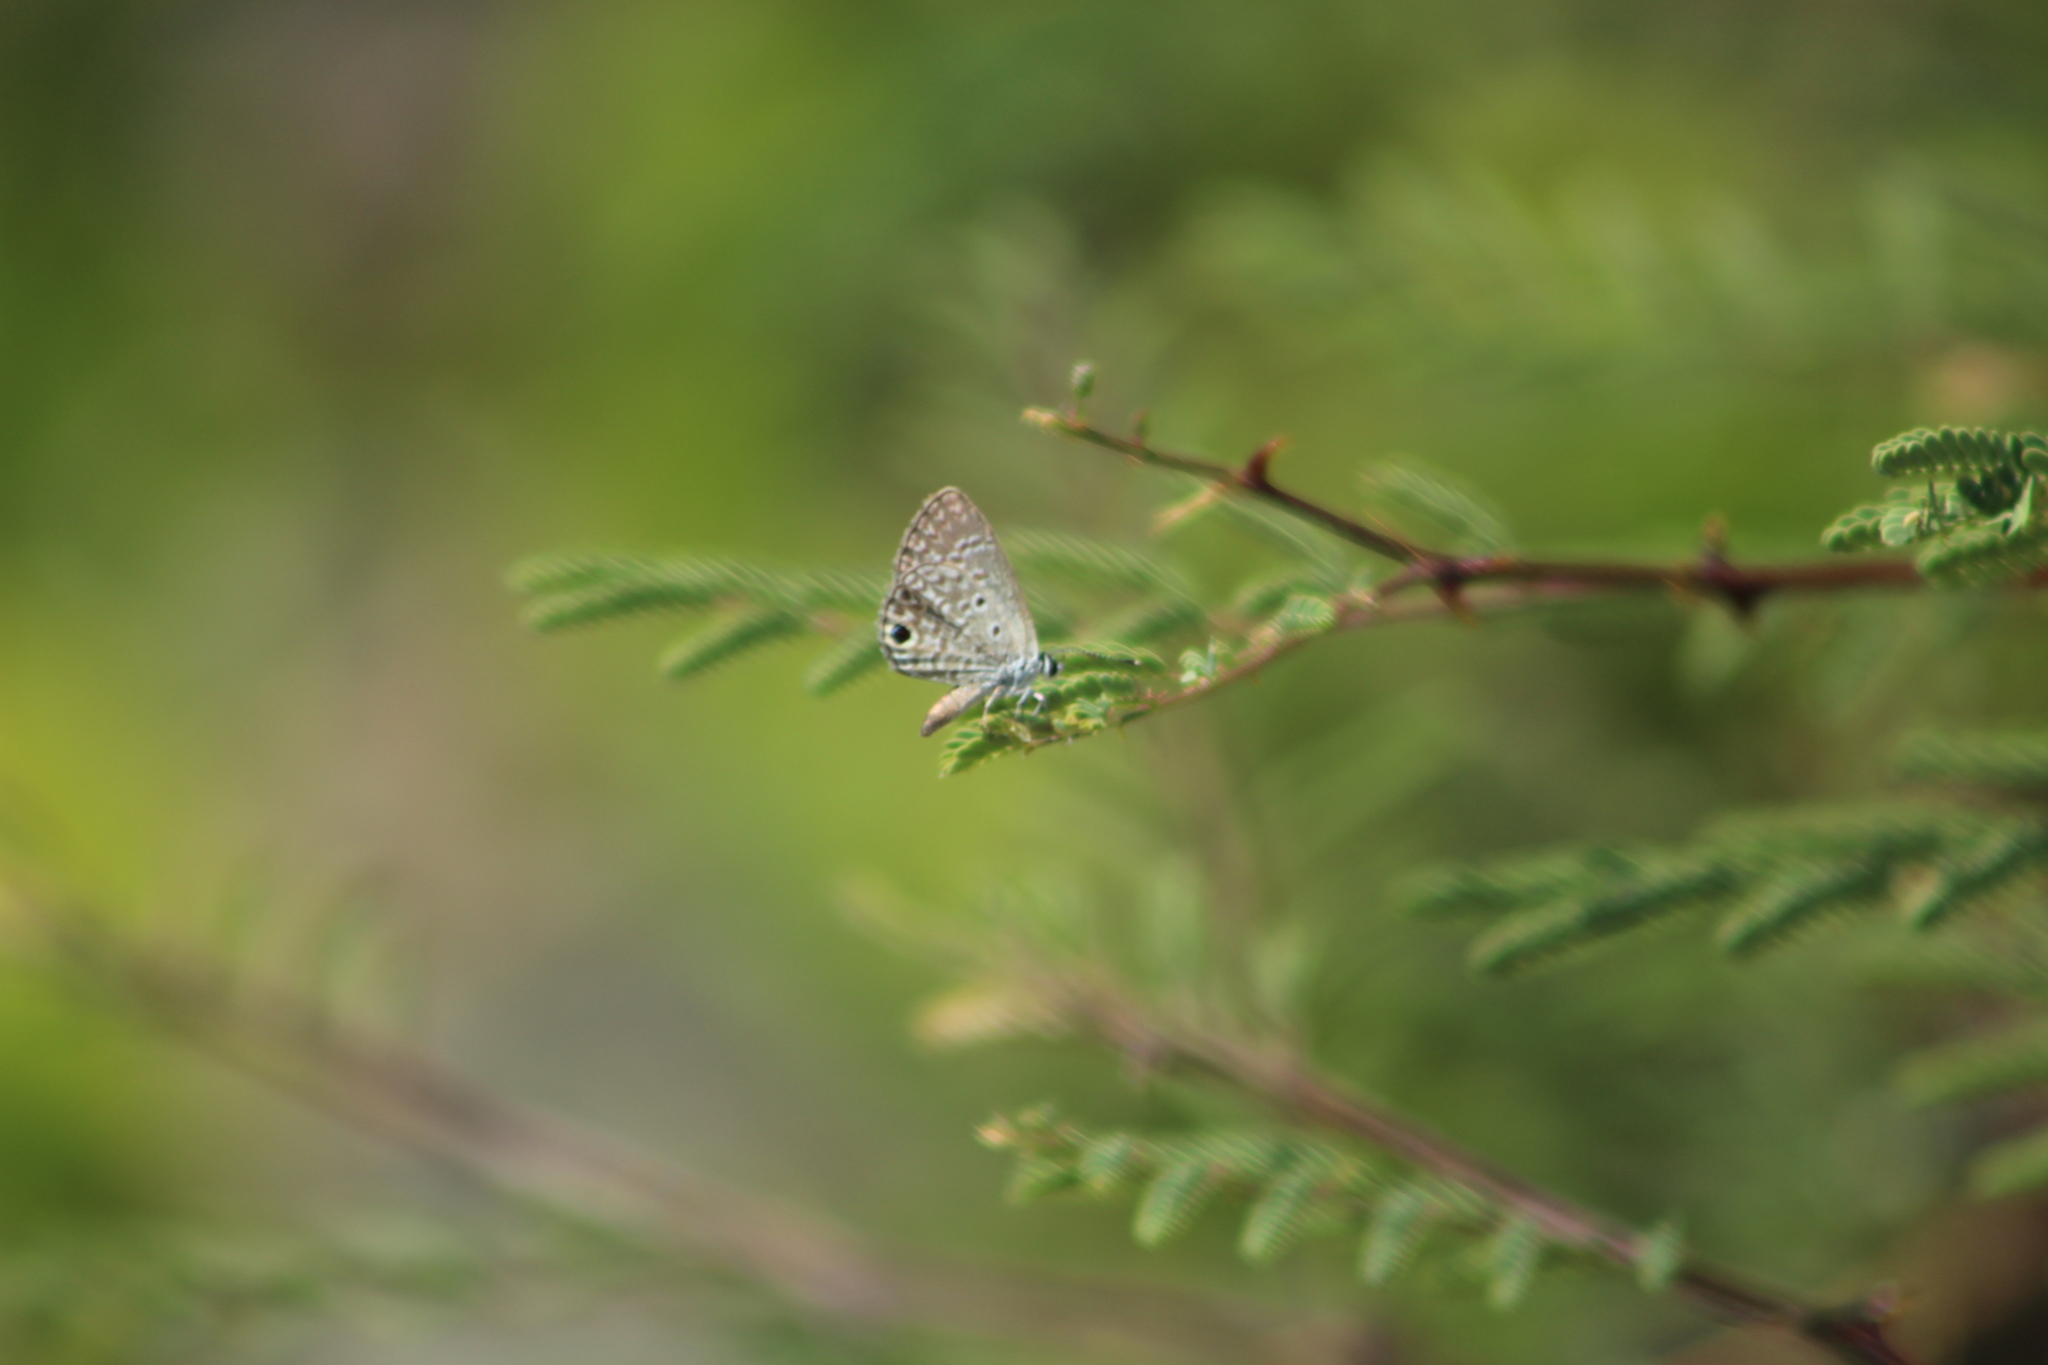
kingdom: Animalia
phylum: Arthropoda
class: Insecta
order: Lepidoptera
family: Lycaenidae
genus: Hemiargus
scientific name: Hemiargus ceraunus
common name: Ceraunus blue
